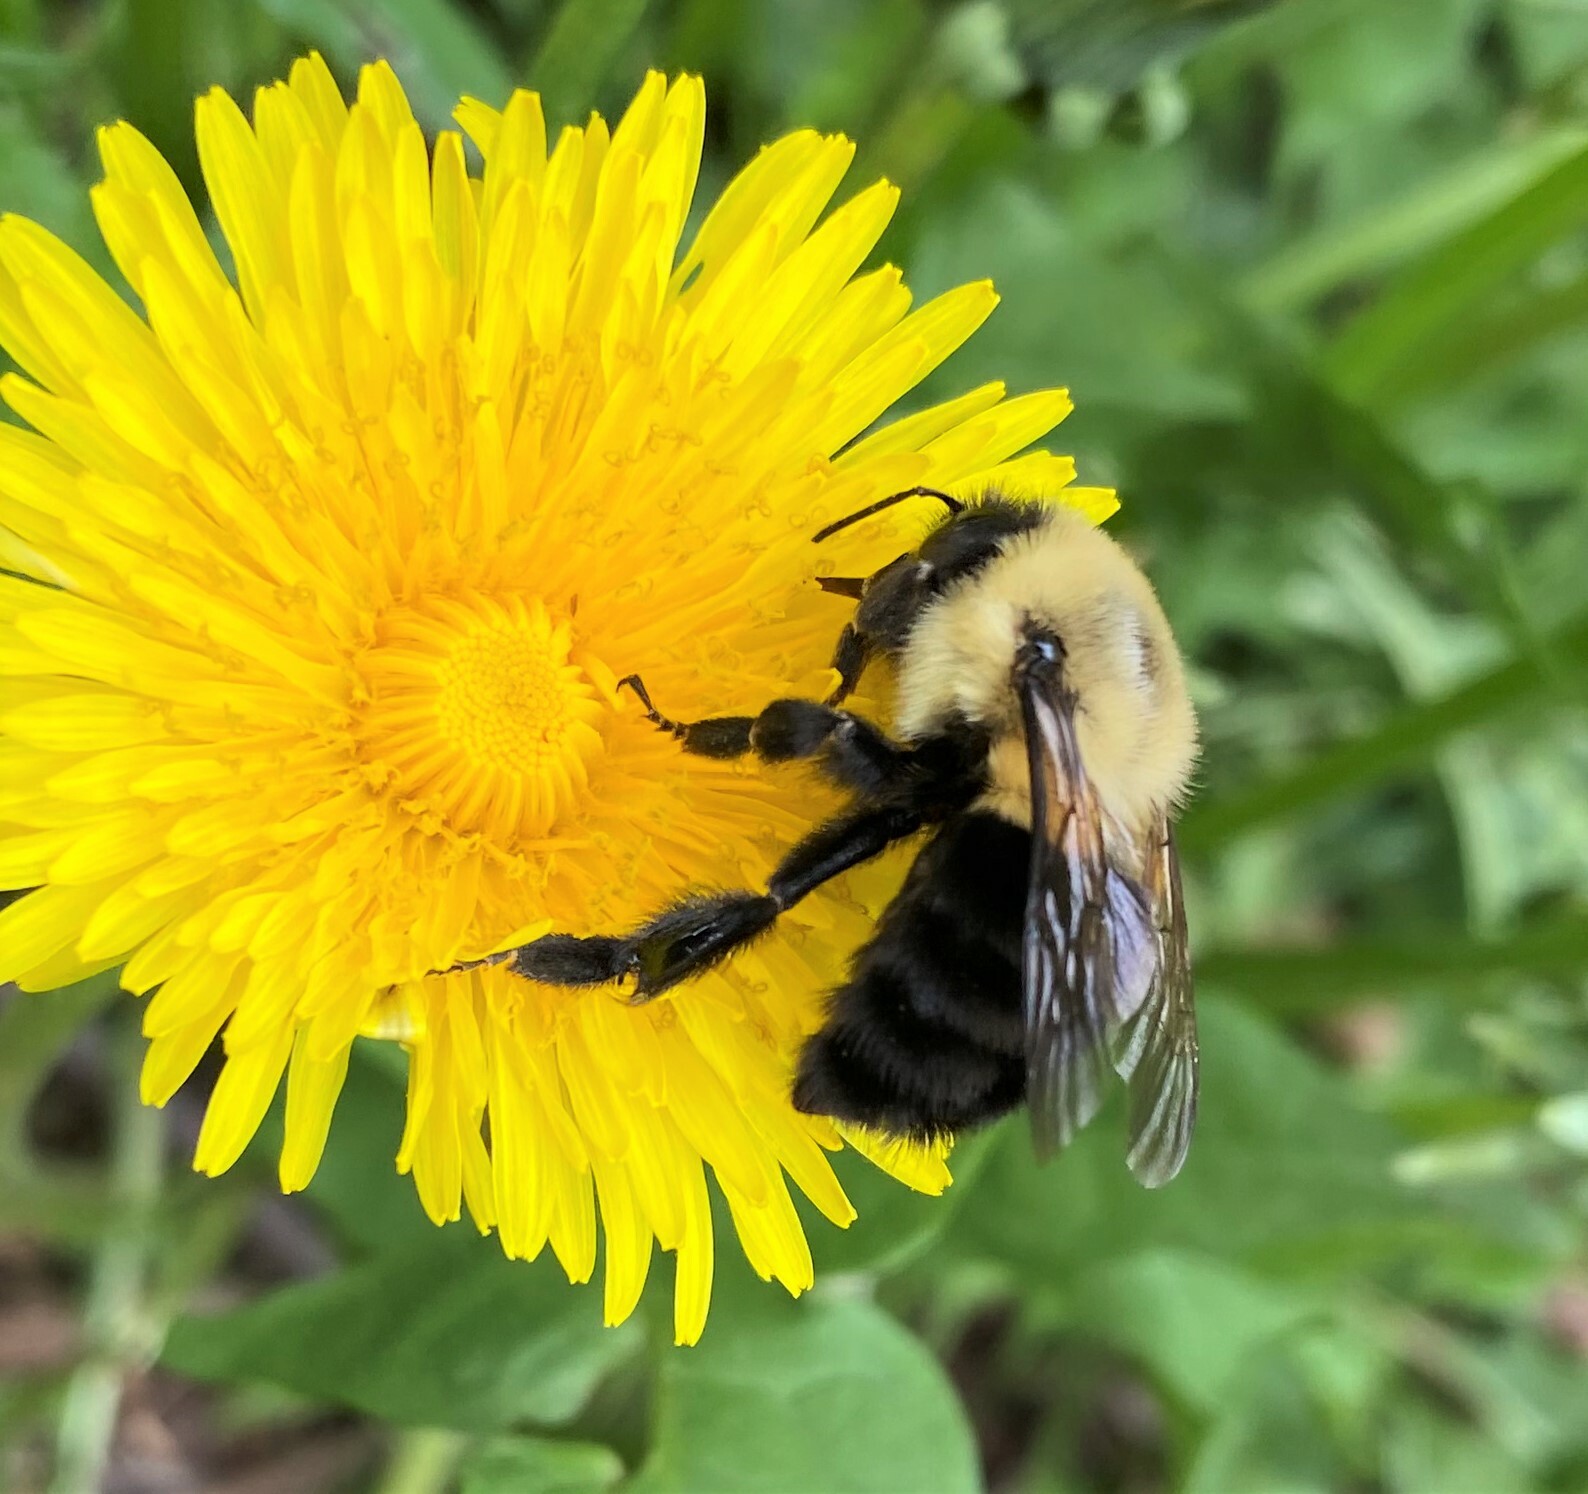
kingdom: Animalia
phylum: Arthropoda
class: Insecta
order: Hymenoptera
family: Apidae
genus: Bombus
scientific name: Bombus impatiens
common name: Common eastern bumble bee
